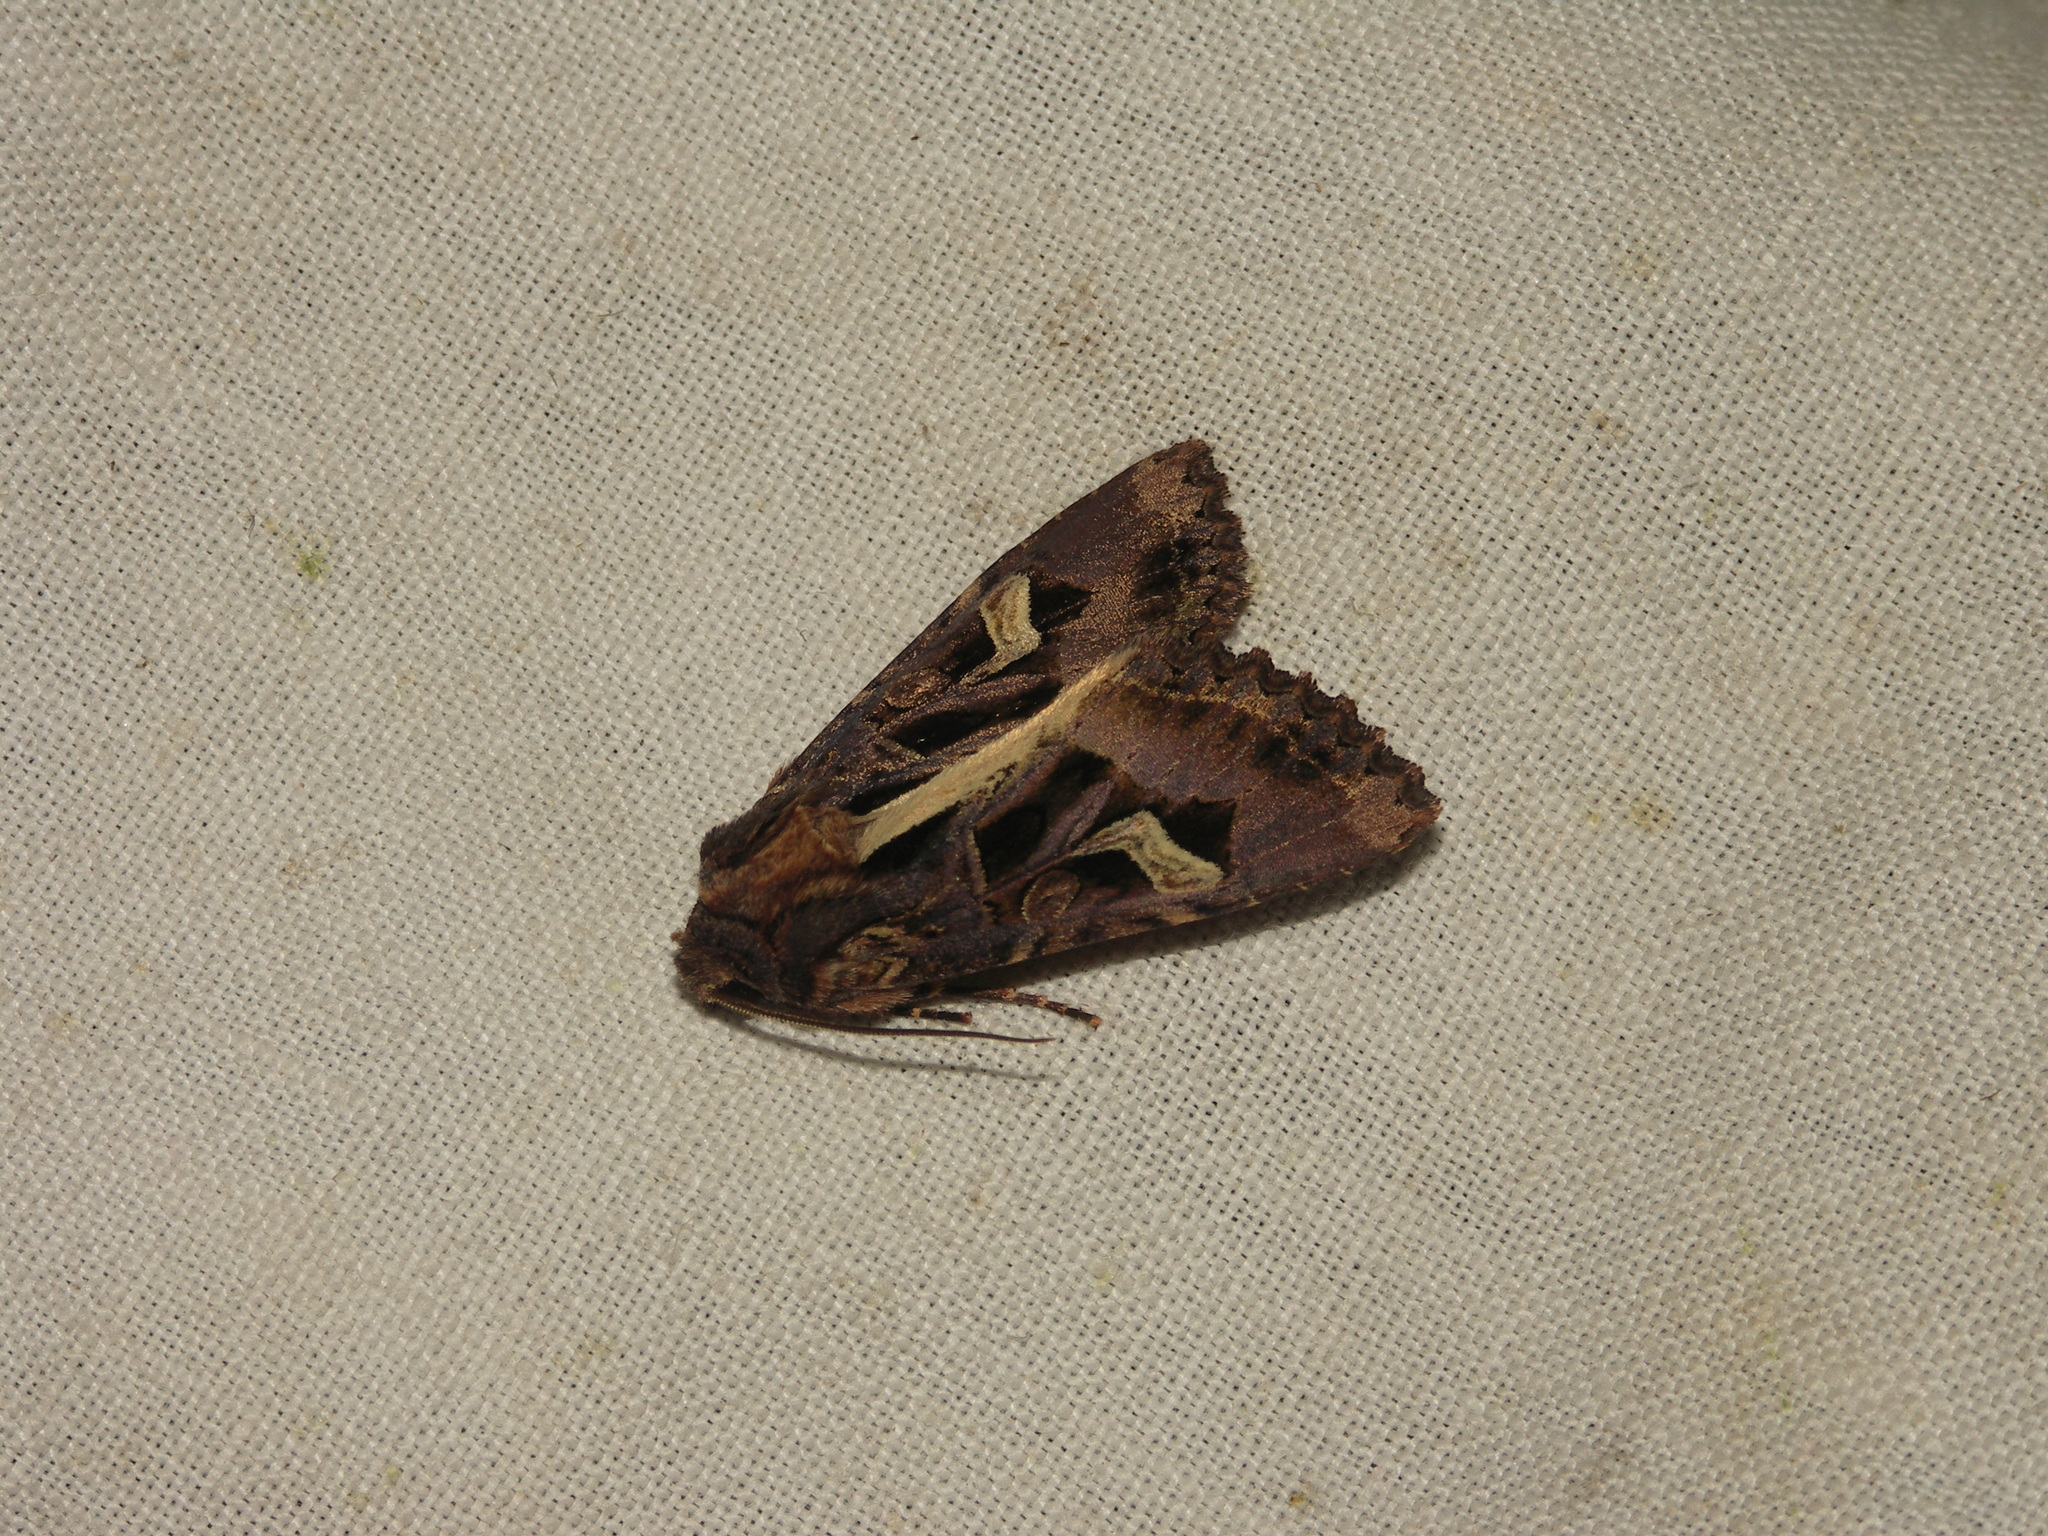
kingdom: Animalia
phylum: Arthropoda
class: Insecta
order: Lepidoptera
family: Noctuidae
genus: Trigonophora
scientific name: Trigonophora flammea
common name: Flame brocade
